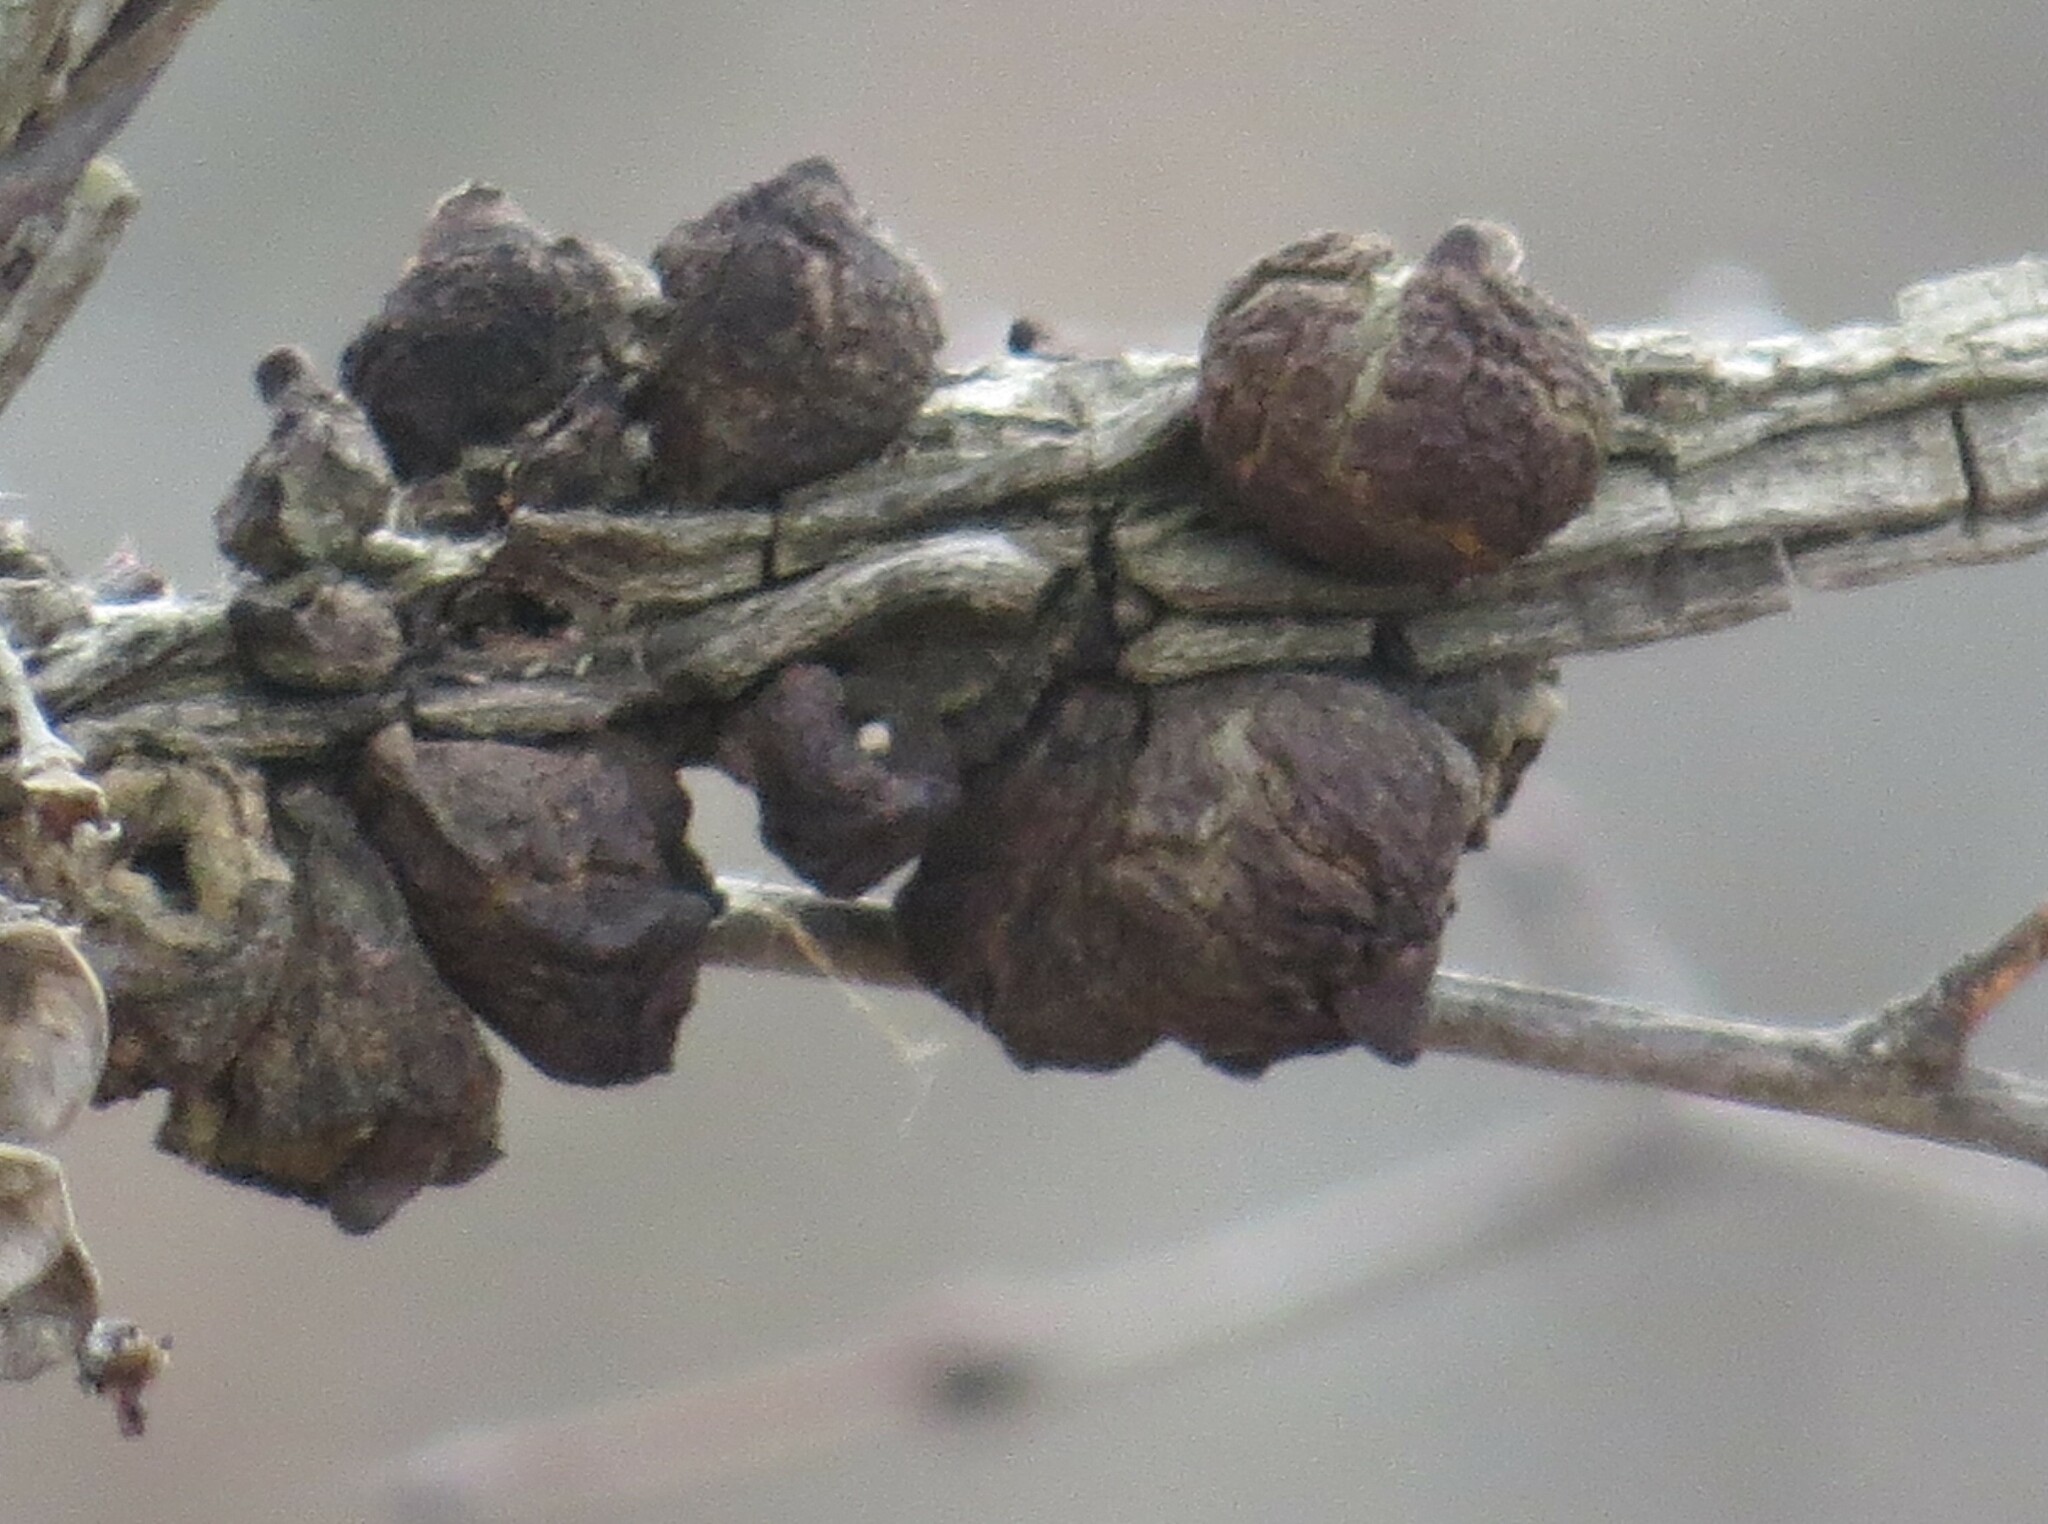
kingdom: Animalia
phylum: Arthropoda
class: Insecta
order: Hymenoptera
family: Cynipidae
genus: Disholcaspis
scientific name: Disholcaspis
